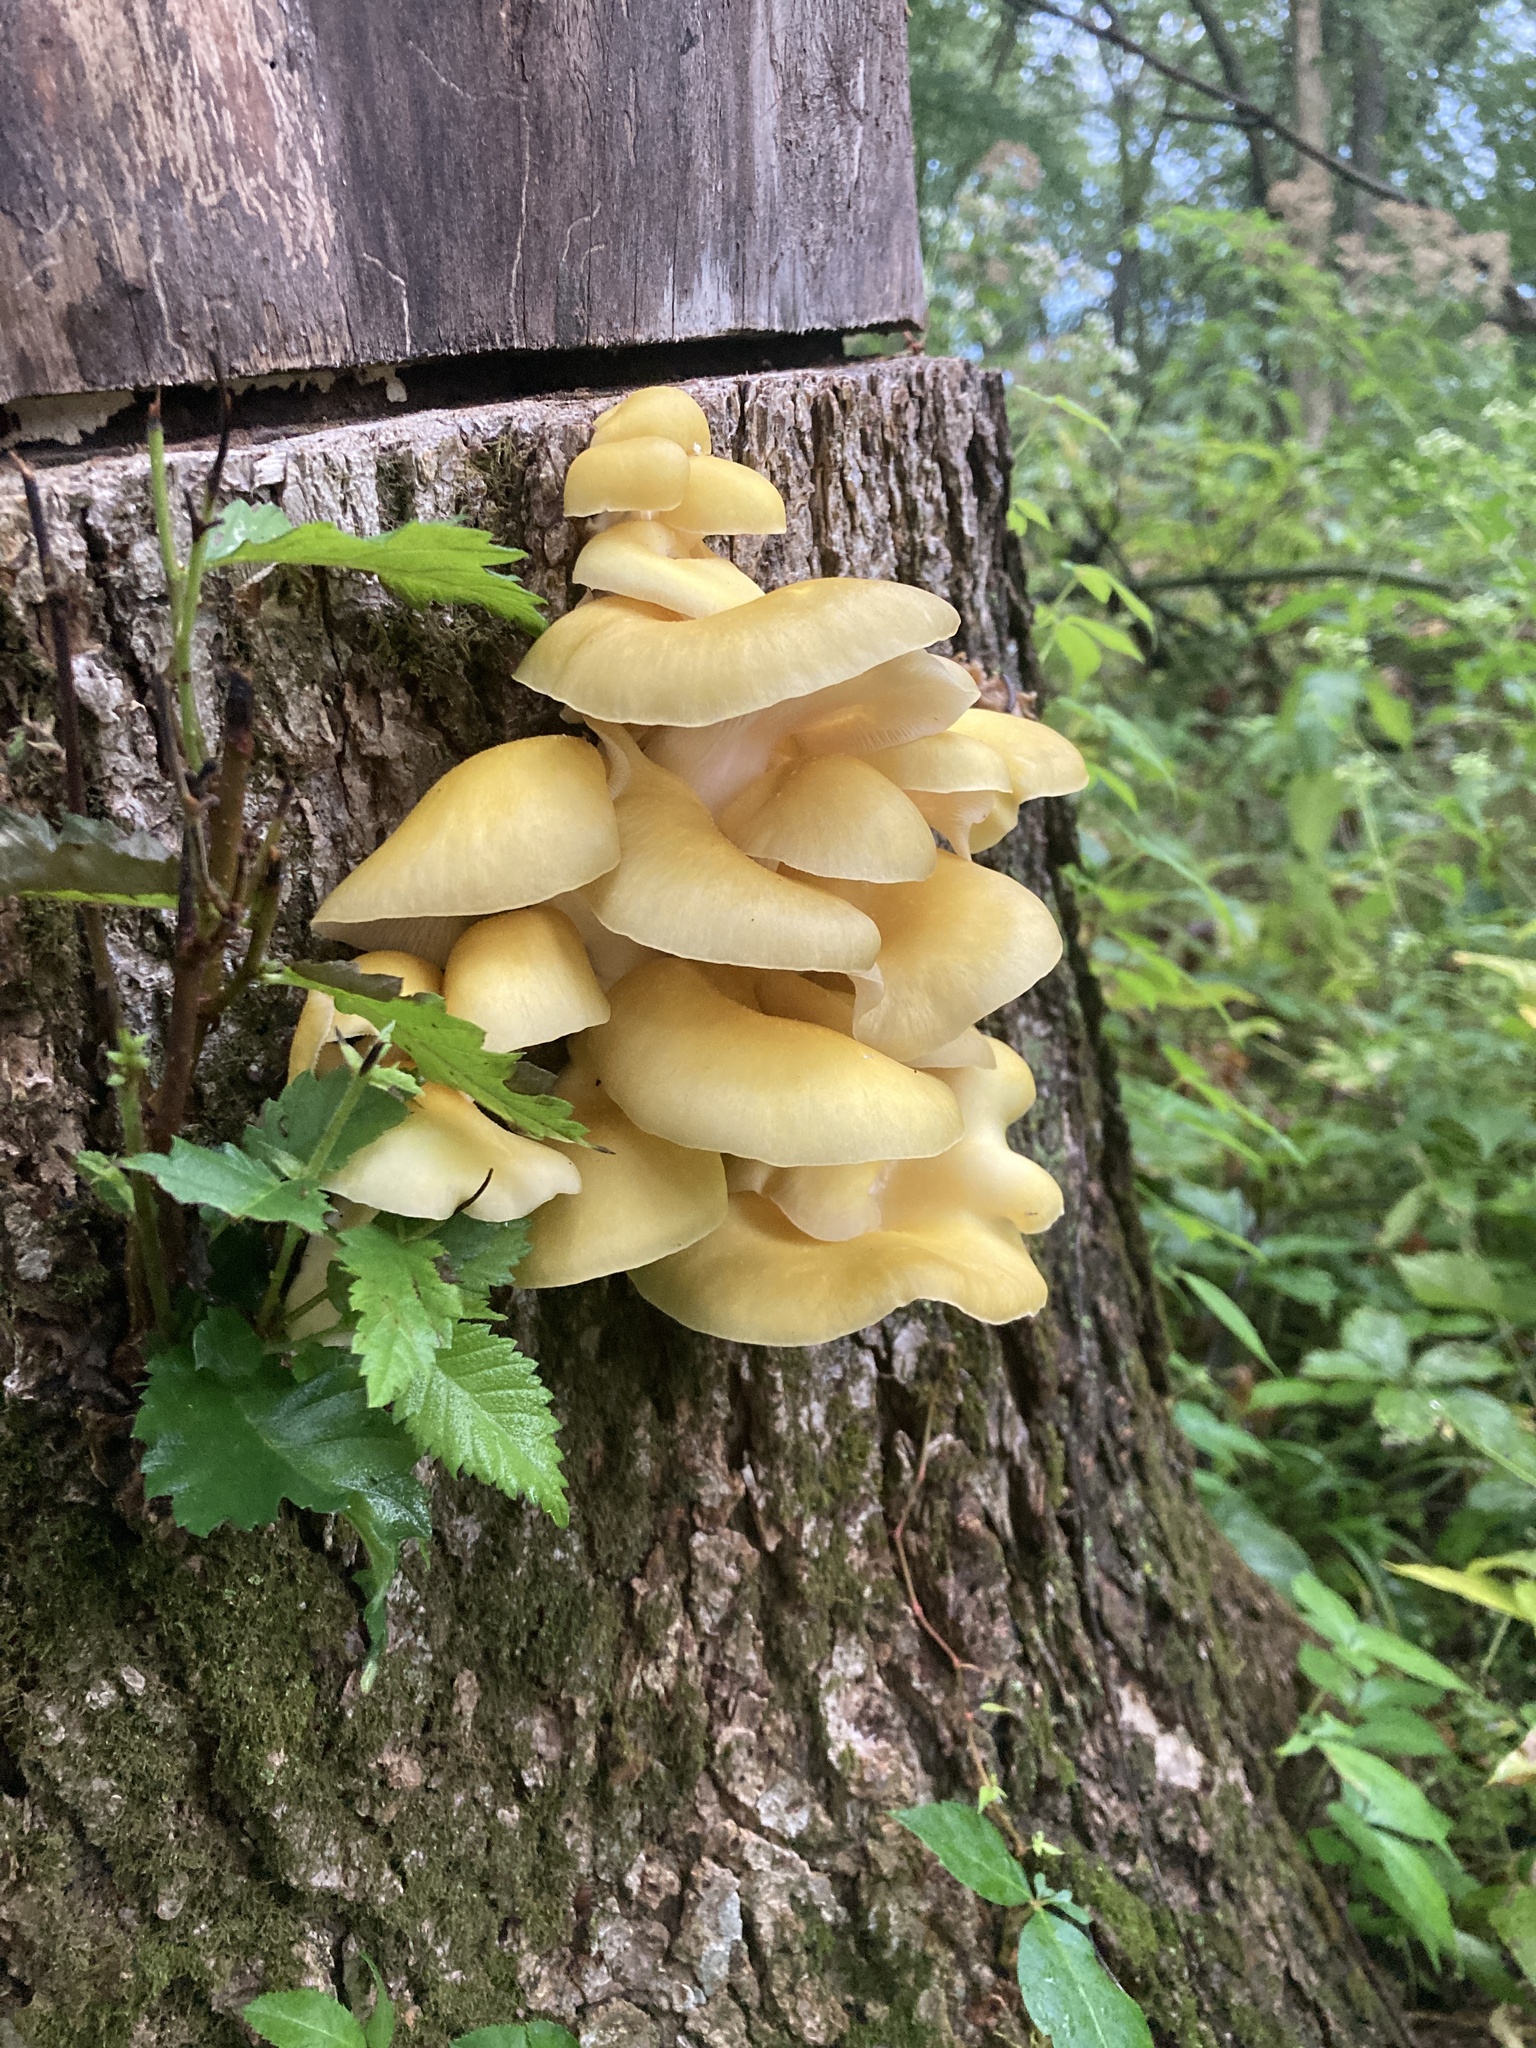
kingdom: Fungi
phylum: Basidiomycota
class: Agaricomycetes
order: Agaricales
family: Pleurotaceae
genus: Pleurotus
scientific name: Pleurotus citrinopileatus
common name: Golden oyster mushroom
